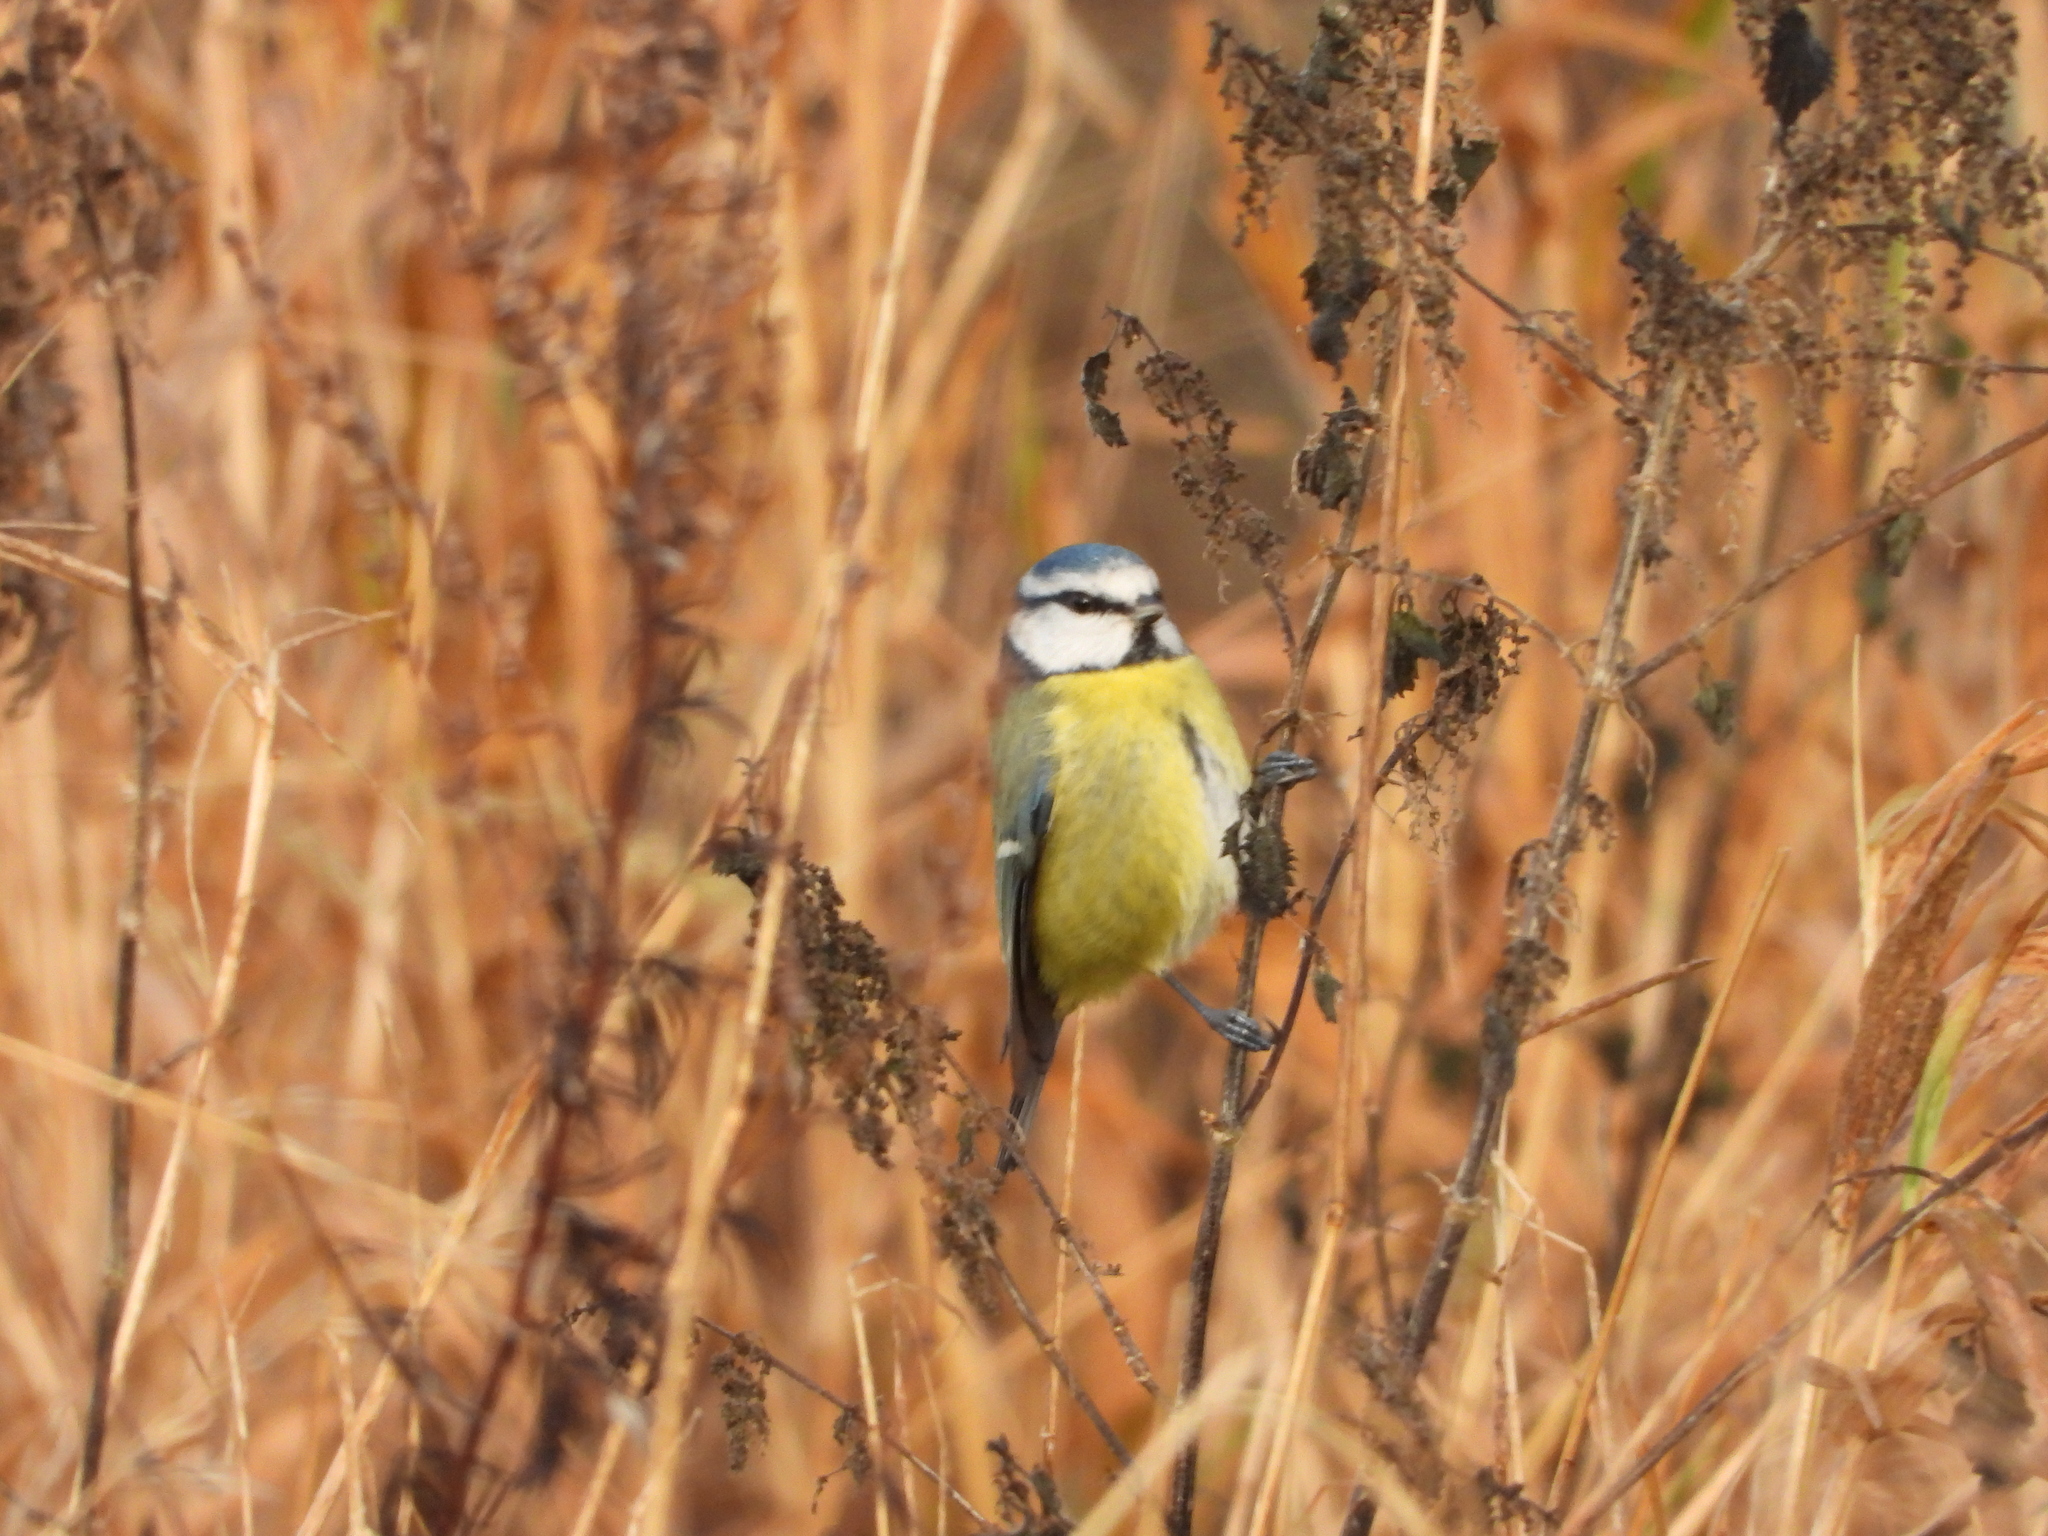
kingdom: Animalia
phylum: Chordata
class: Aves
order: Passeriformes
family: Paridae
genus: Cyanistes
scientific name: Cyanistes caeruleus
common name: Eurasian blue tit
